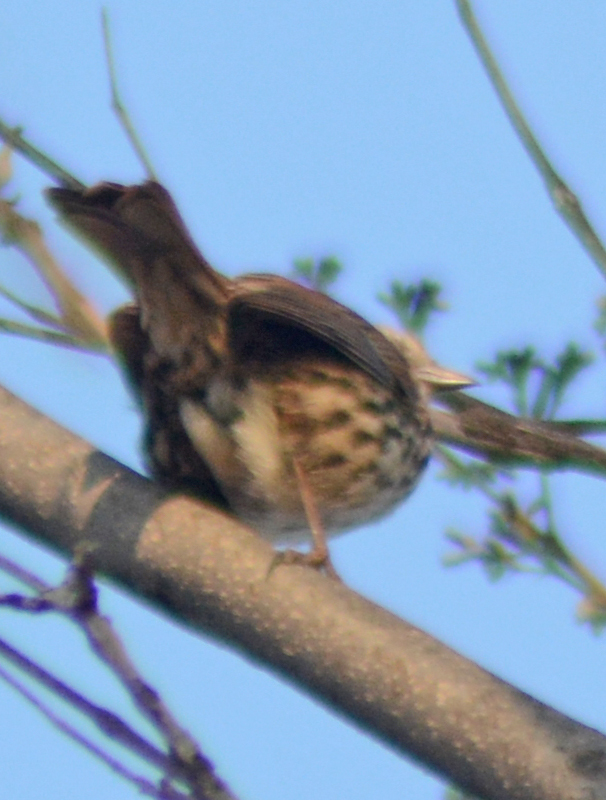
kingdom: Animalia
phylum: Chordata
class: Aves
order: Passeriformes
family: Passerellidae
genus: Melospiza
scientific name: Melospiza melodia
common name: Song sparrow
